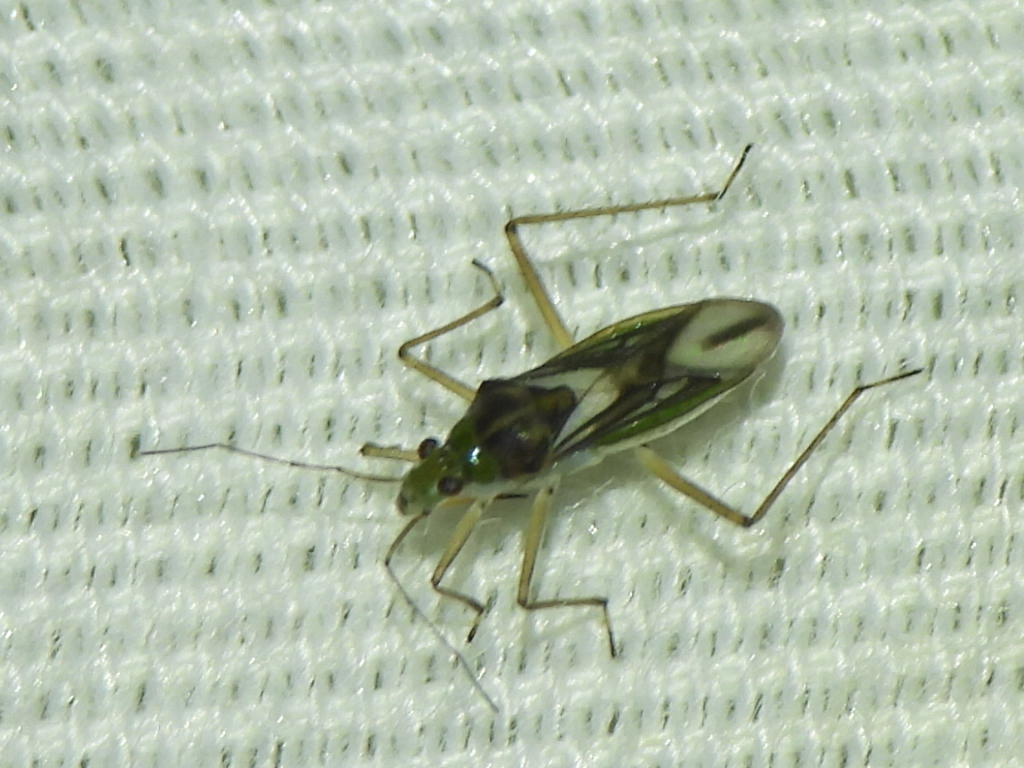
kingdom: Animalia
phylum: Arthropoda
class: Insecta
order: Hemiptera
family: Mesoveliidae
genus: Mesovelia
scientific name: Mesovelia mulsanti
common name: Water treaders
